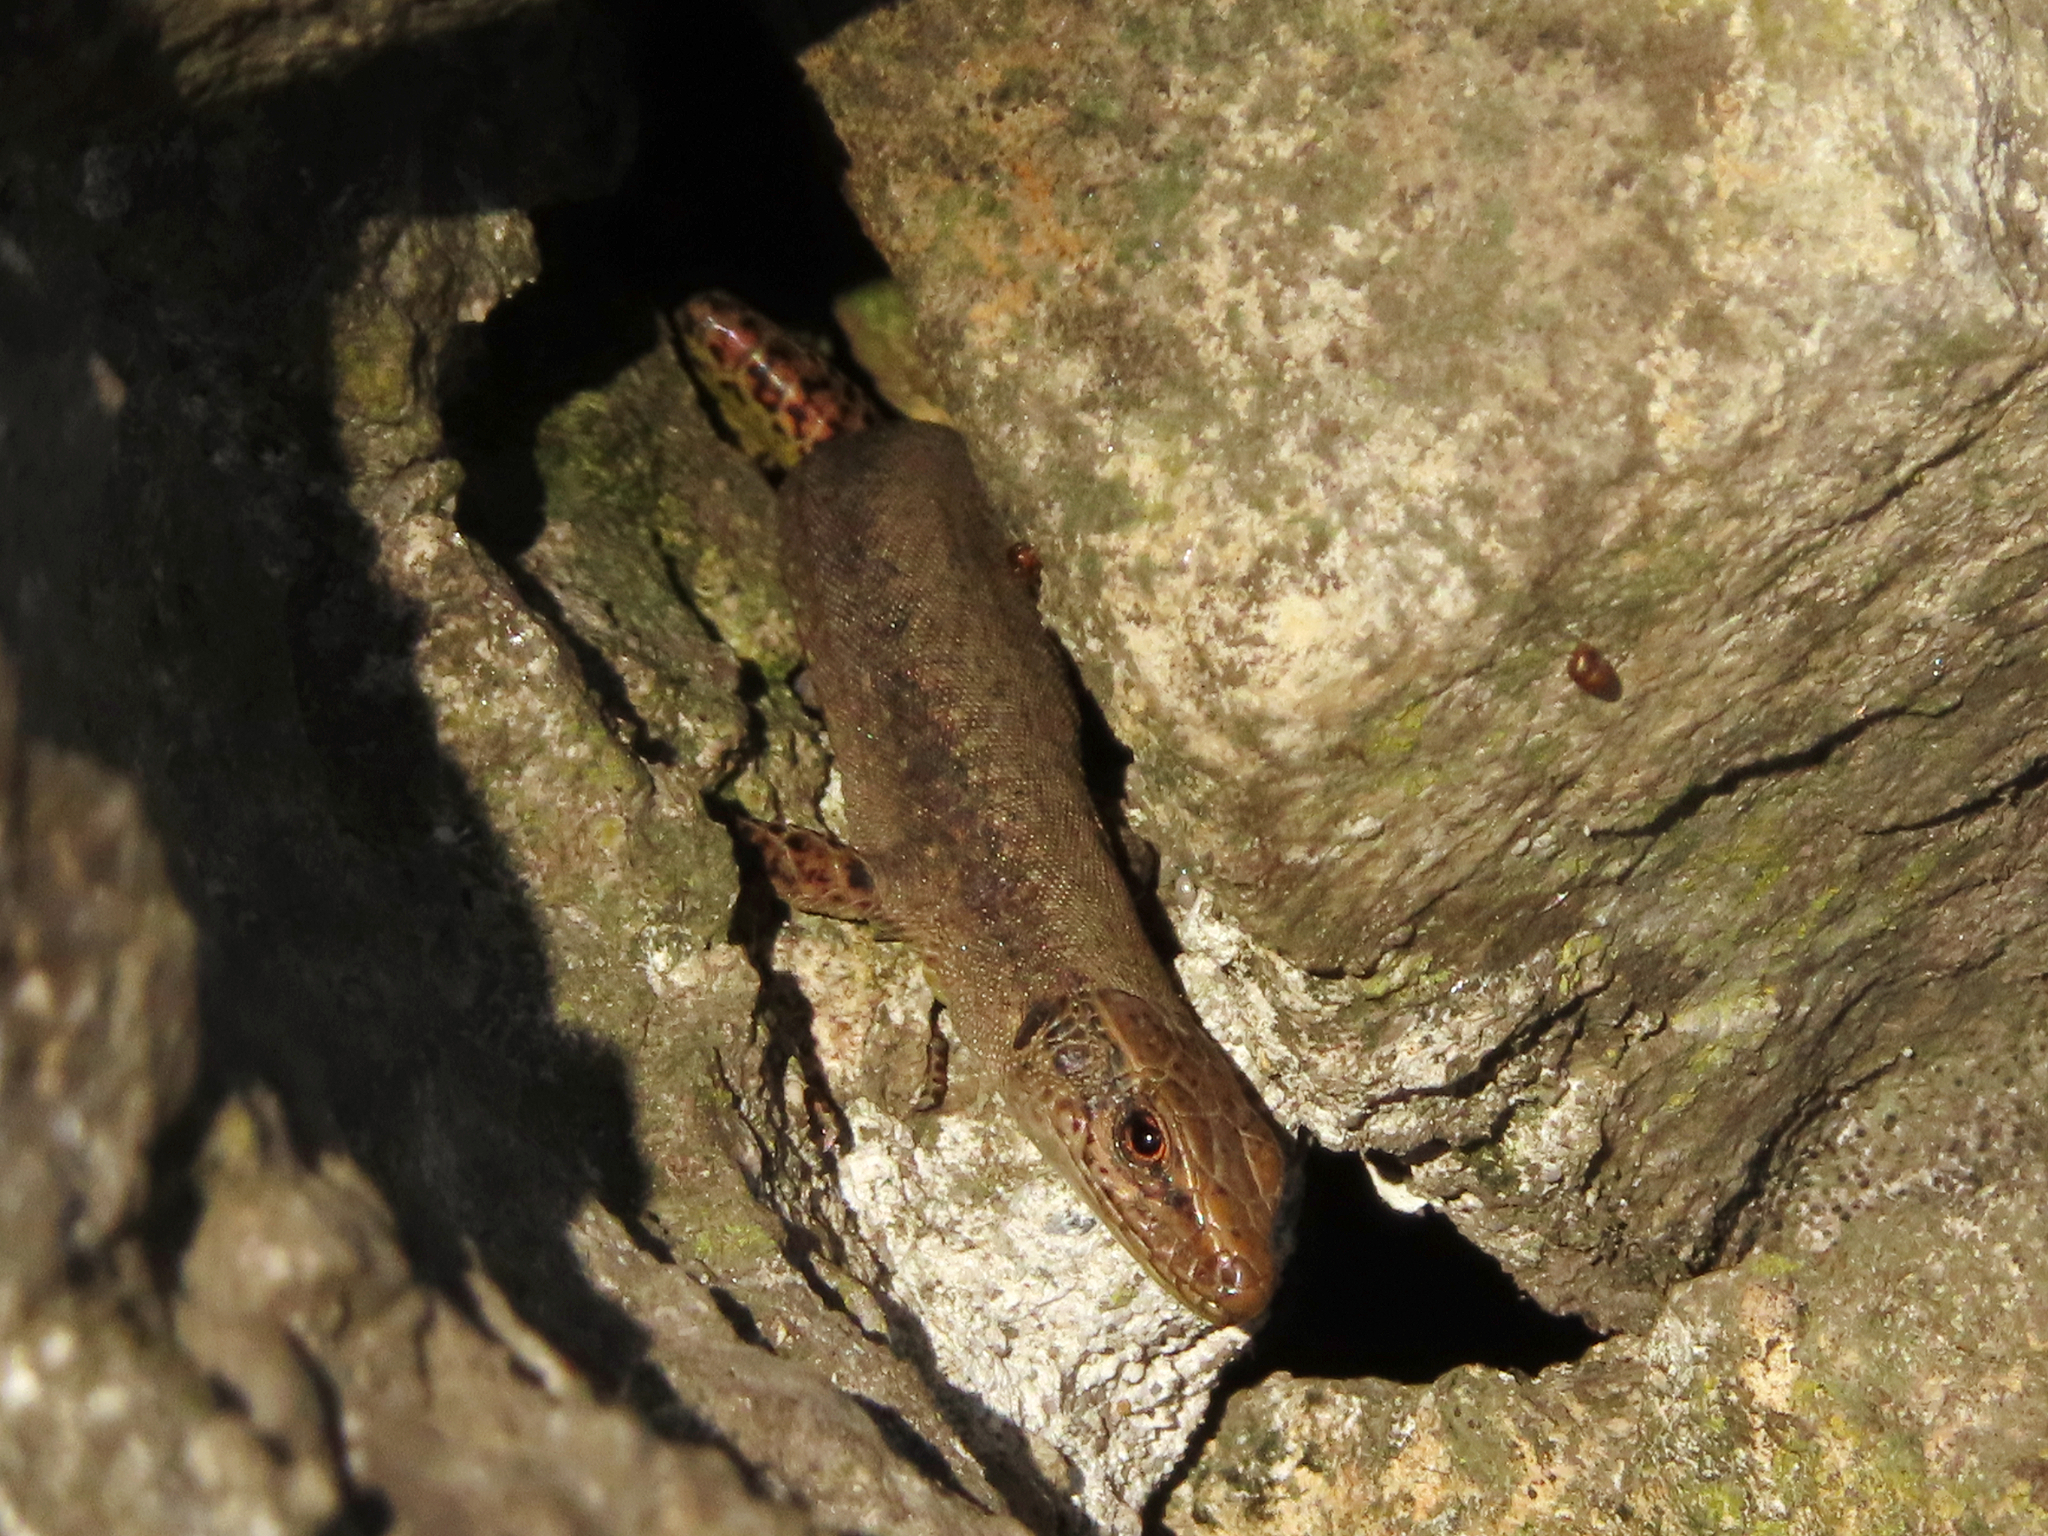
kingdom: Animalia
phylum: Chordata
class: Squamata
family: Lacertidae
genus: Darevskia
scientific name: Darevskia mixta
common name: Ajarian lizard
